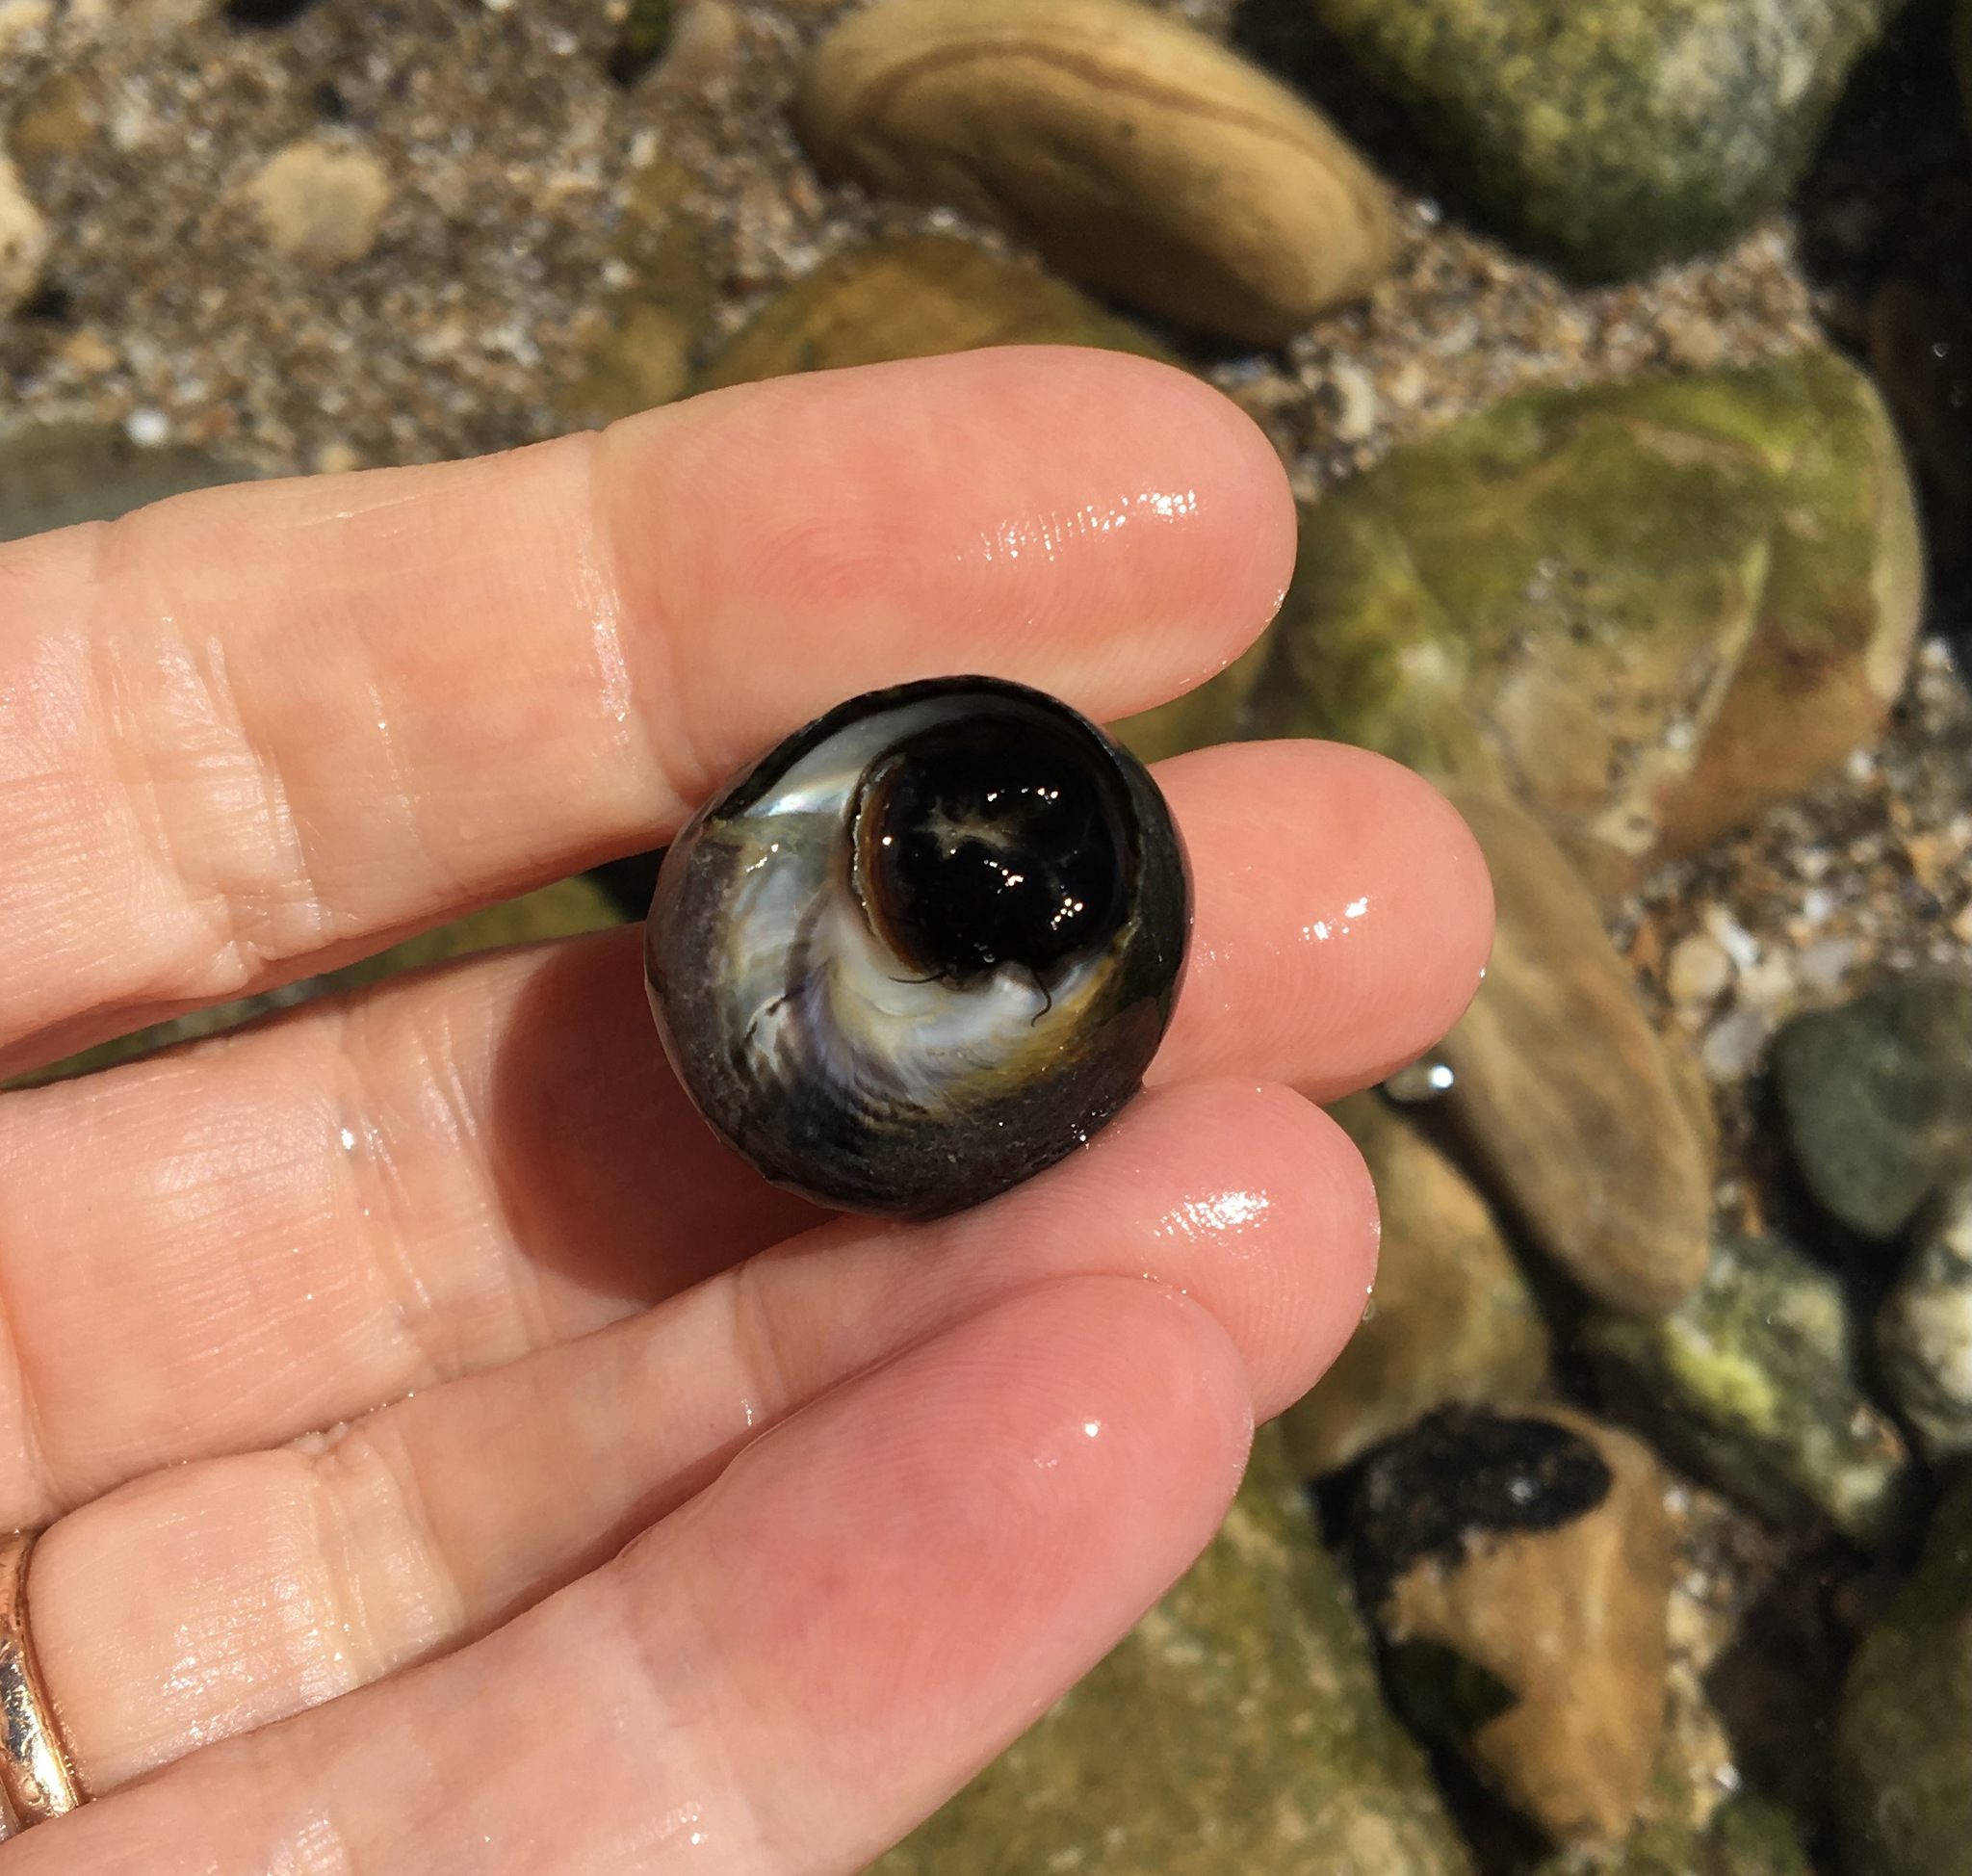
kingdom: Animalia
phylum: Mollusca
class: Gastropoda
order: Trochida
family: Tegulidae
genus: Tegula
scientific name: Tegula funebralis
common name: Black tegula
